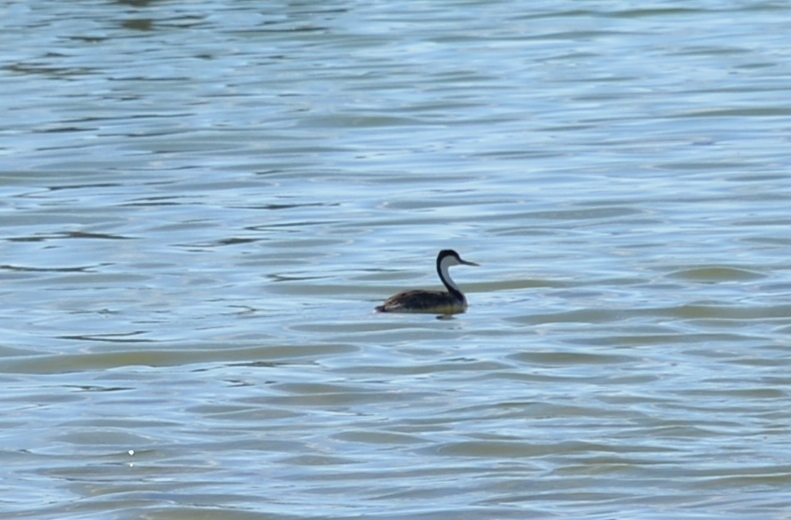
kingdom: Animalia
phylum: Chordata
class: Aves
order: Podicipediformes
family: Podicipedidae
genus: Aechmophorus
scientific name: Aechmophorus occidentalis
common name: Western grebe
